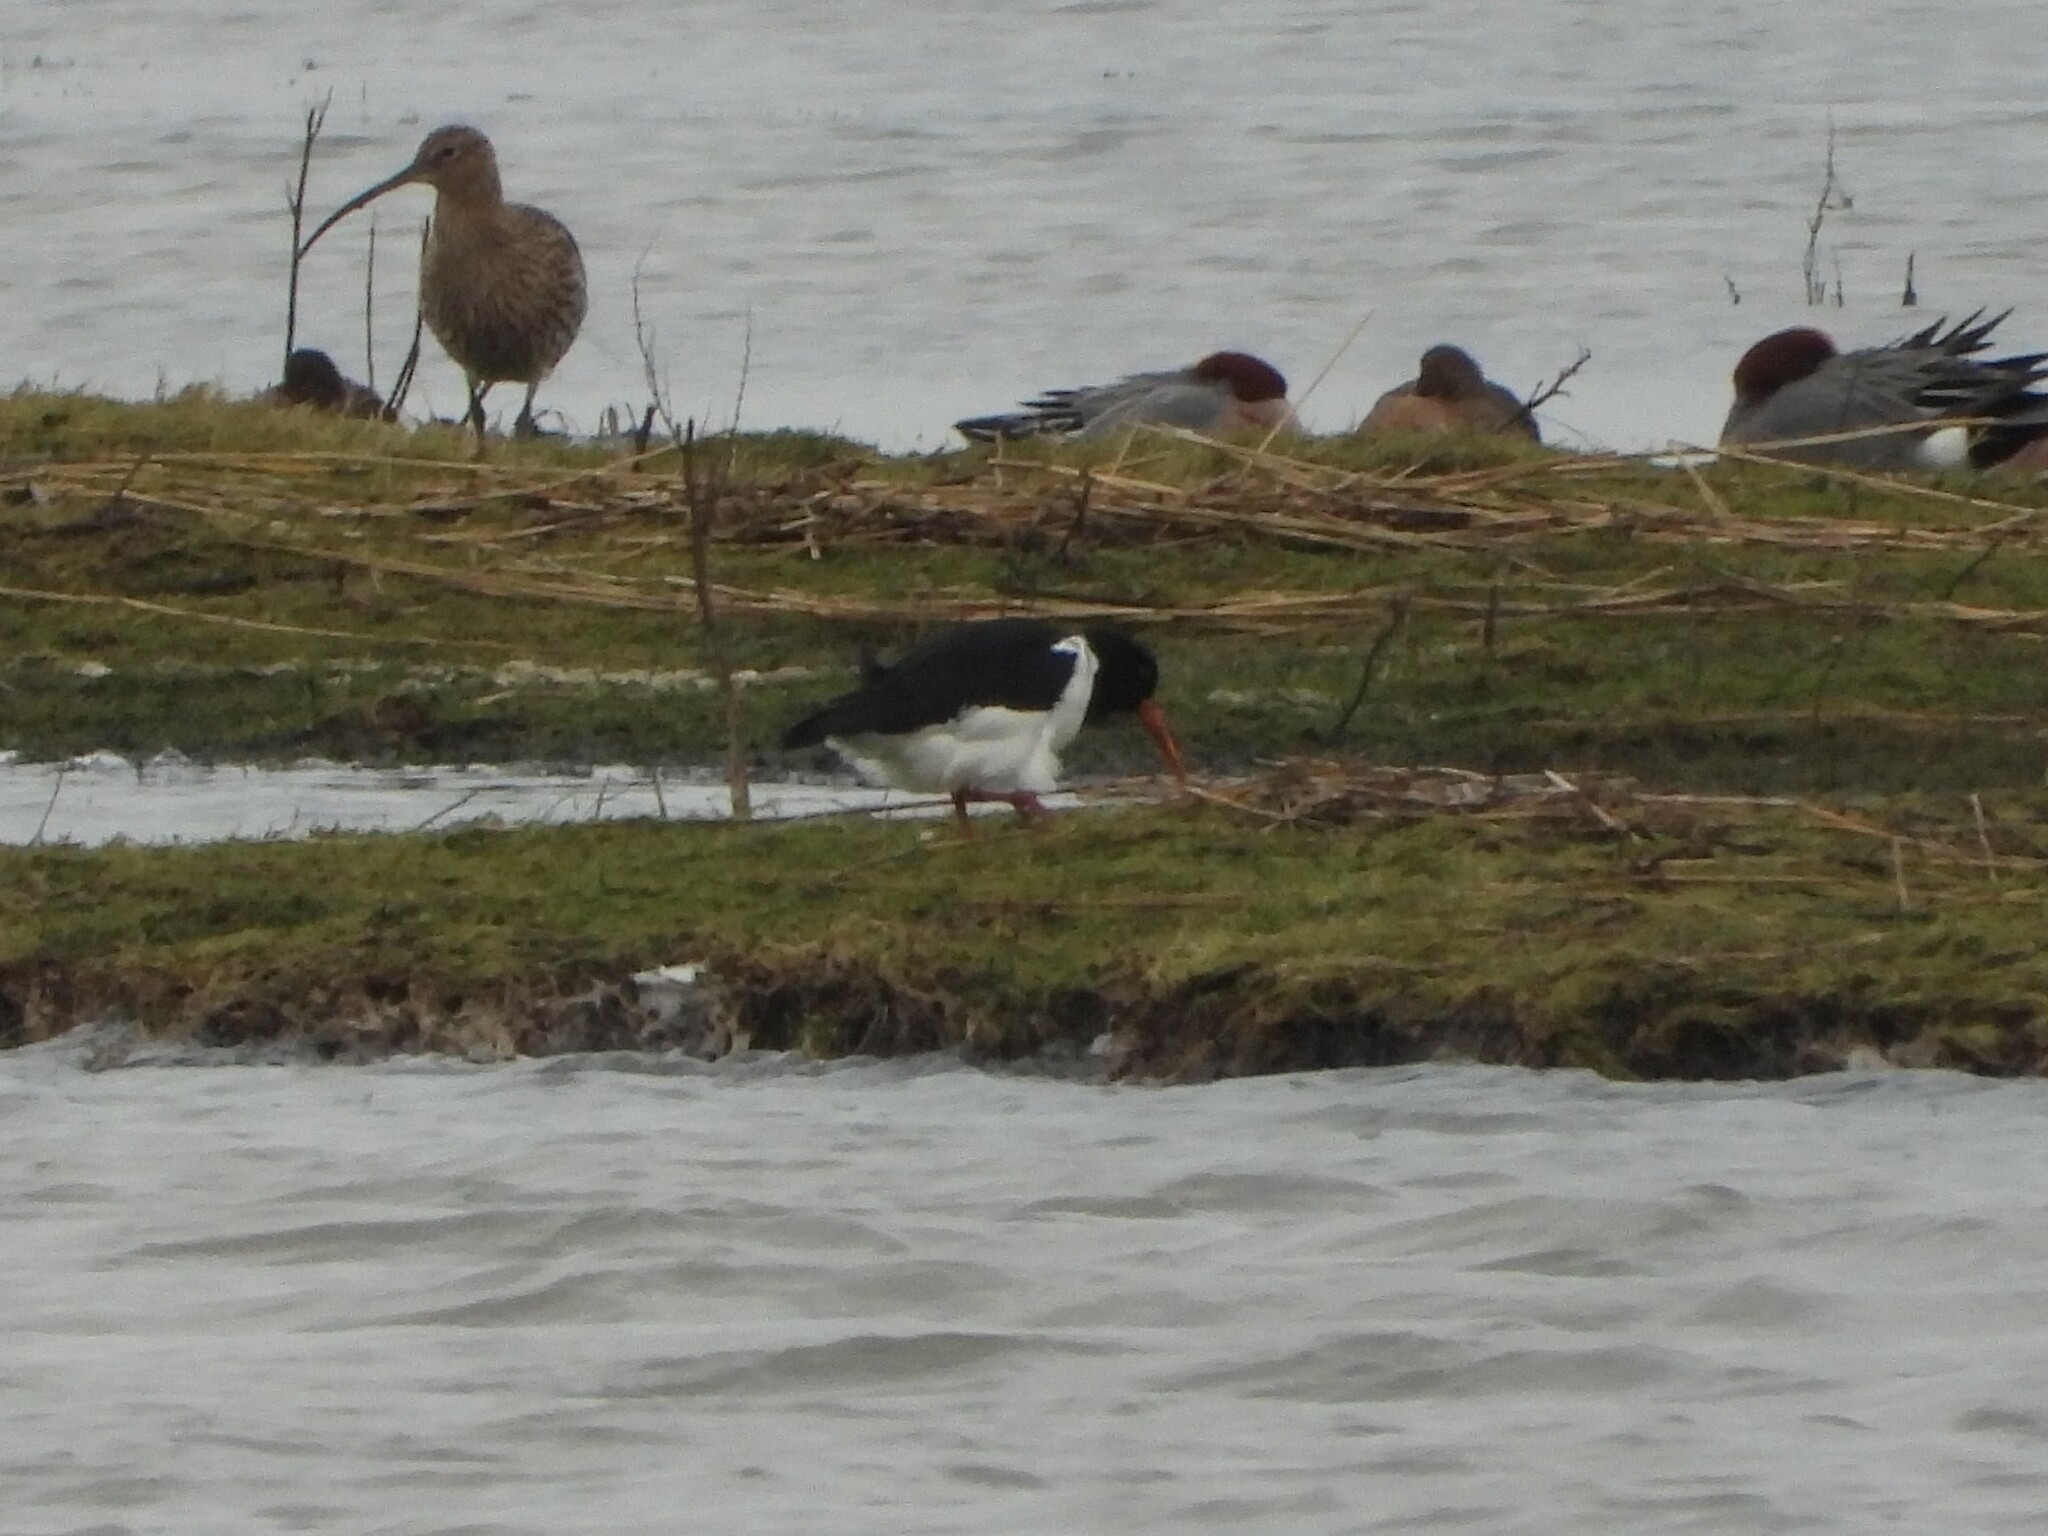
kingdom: Animalia
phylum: Chordata
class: Aves
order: Charadriiformes
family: Haematopodidae
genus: Haematopus
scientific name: Haematopus ostralegus
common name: Eurasian oystercatcher
